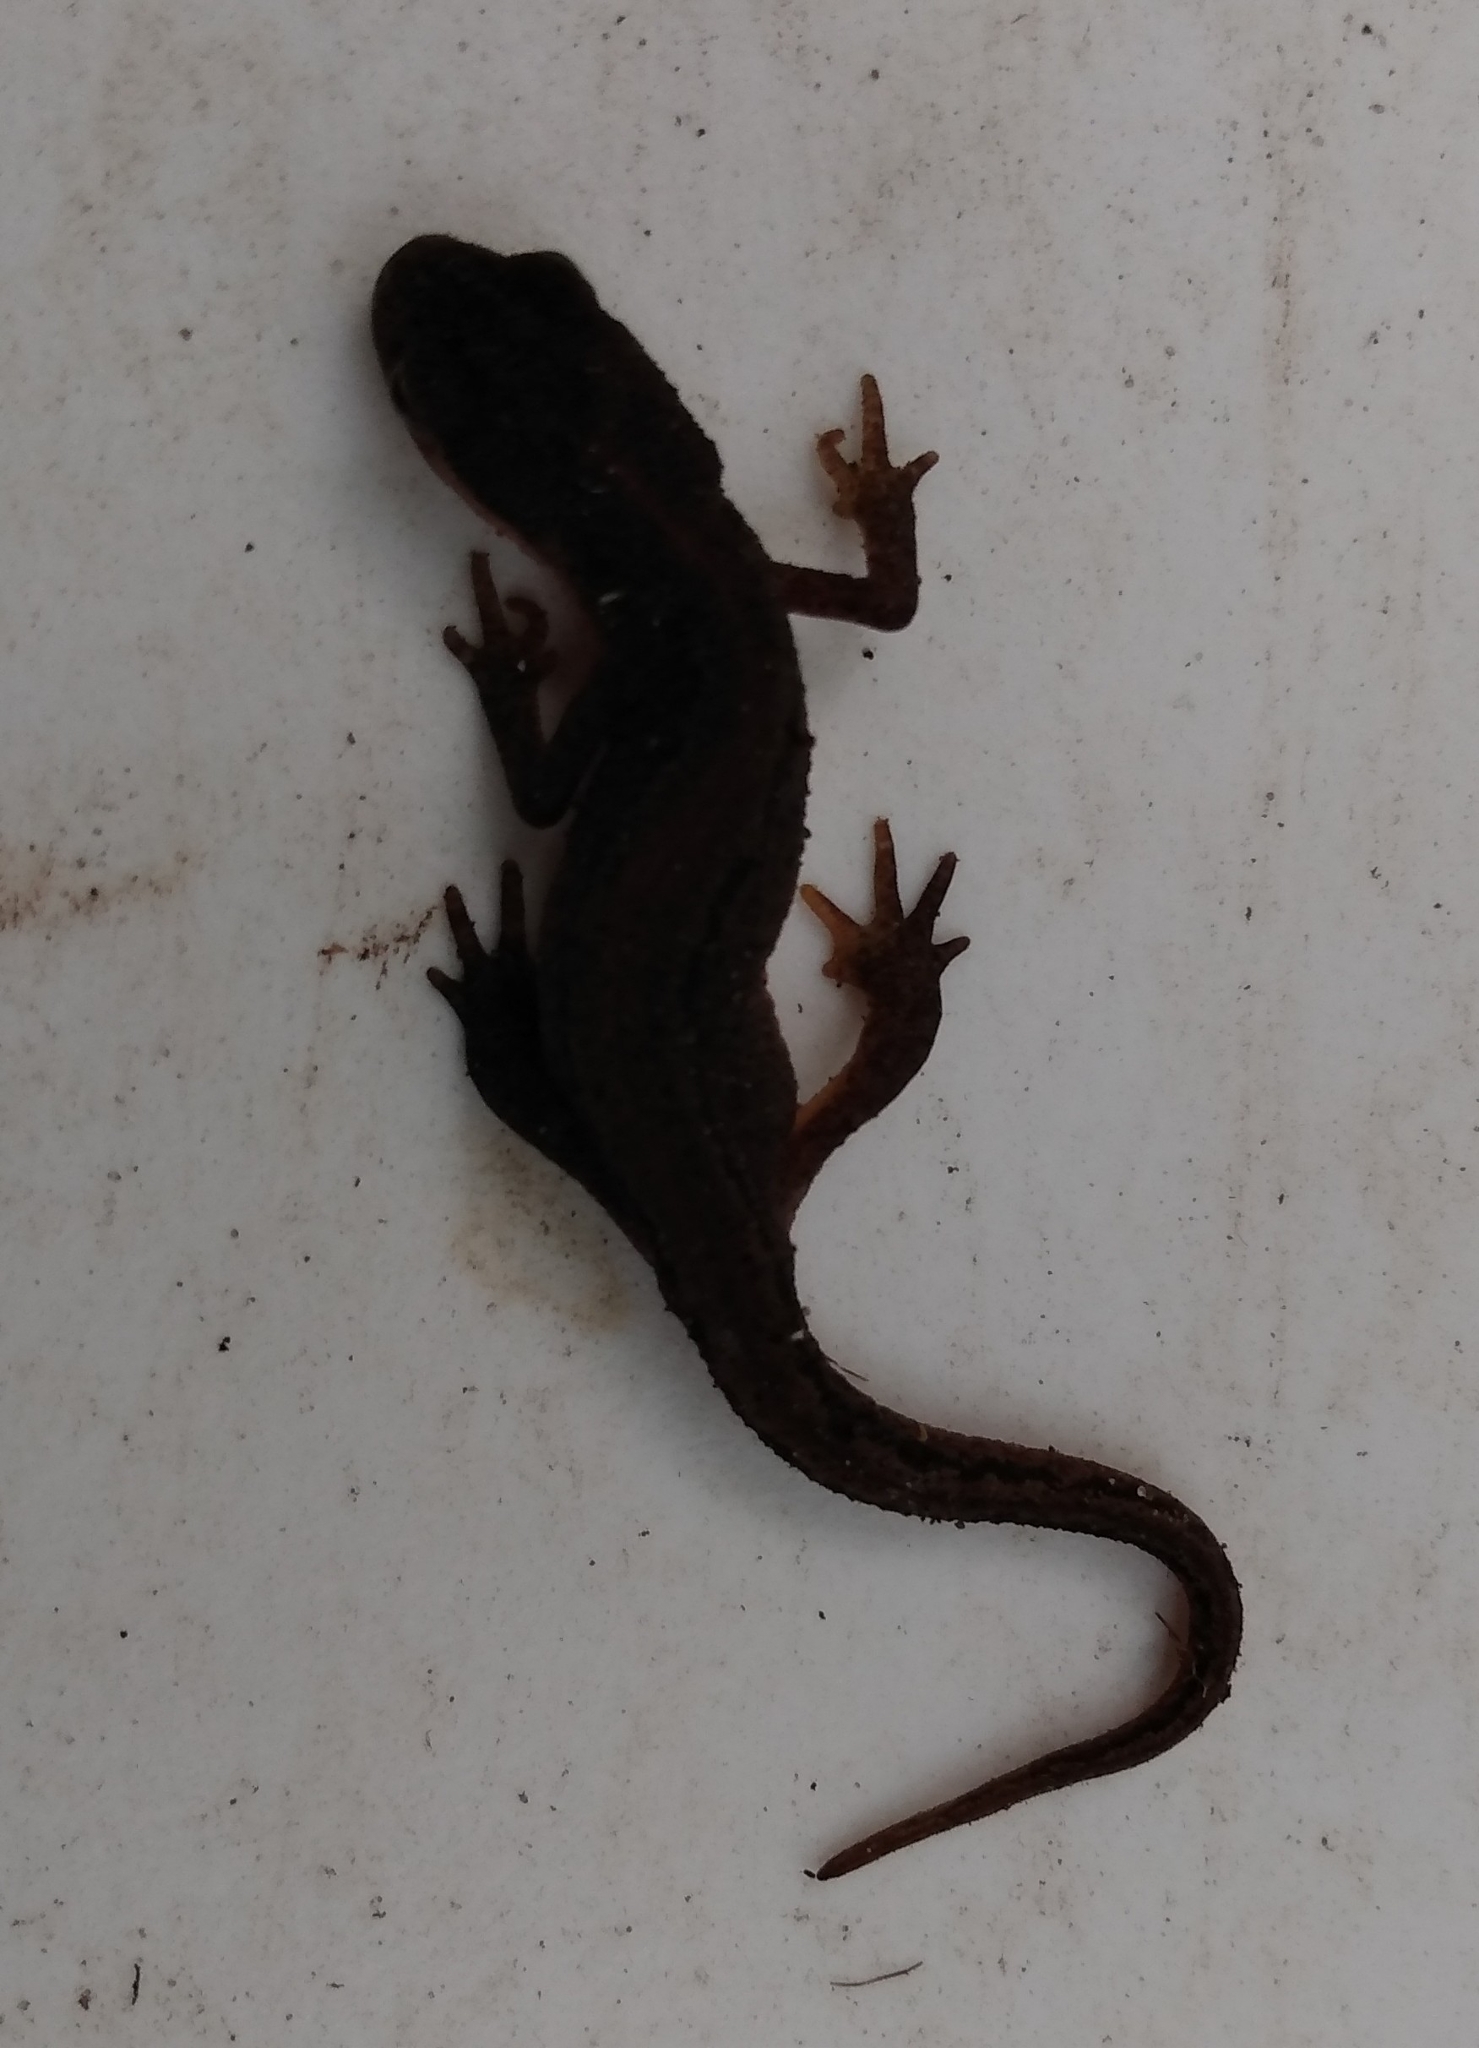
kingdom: Animalia
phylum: Chordata
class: Amphibia
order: Caudata
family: Salamandridae
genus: Lissotriton
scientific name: Lissotriton vulgaris
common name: Smooth newt
